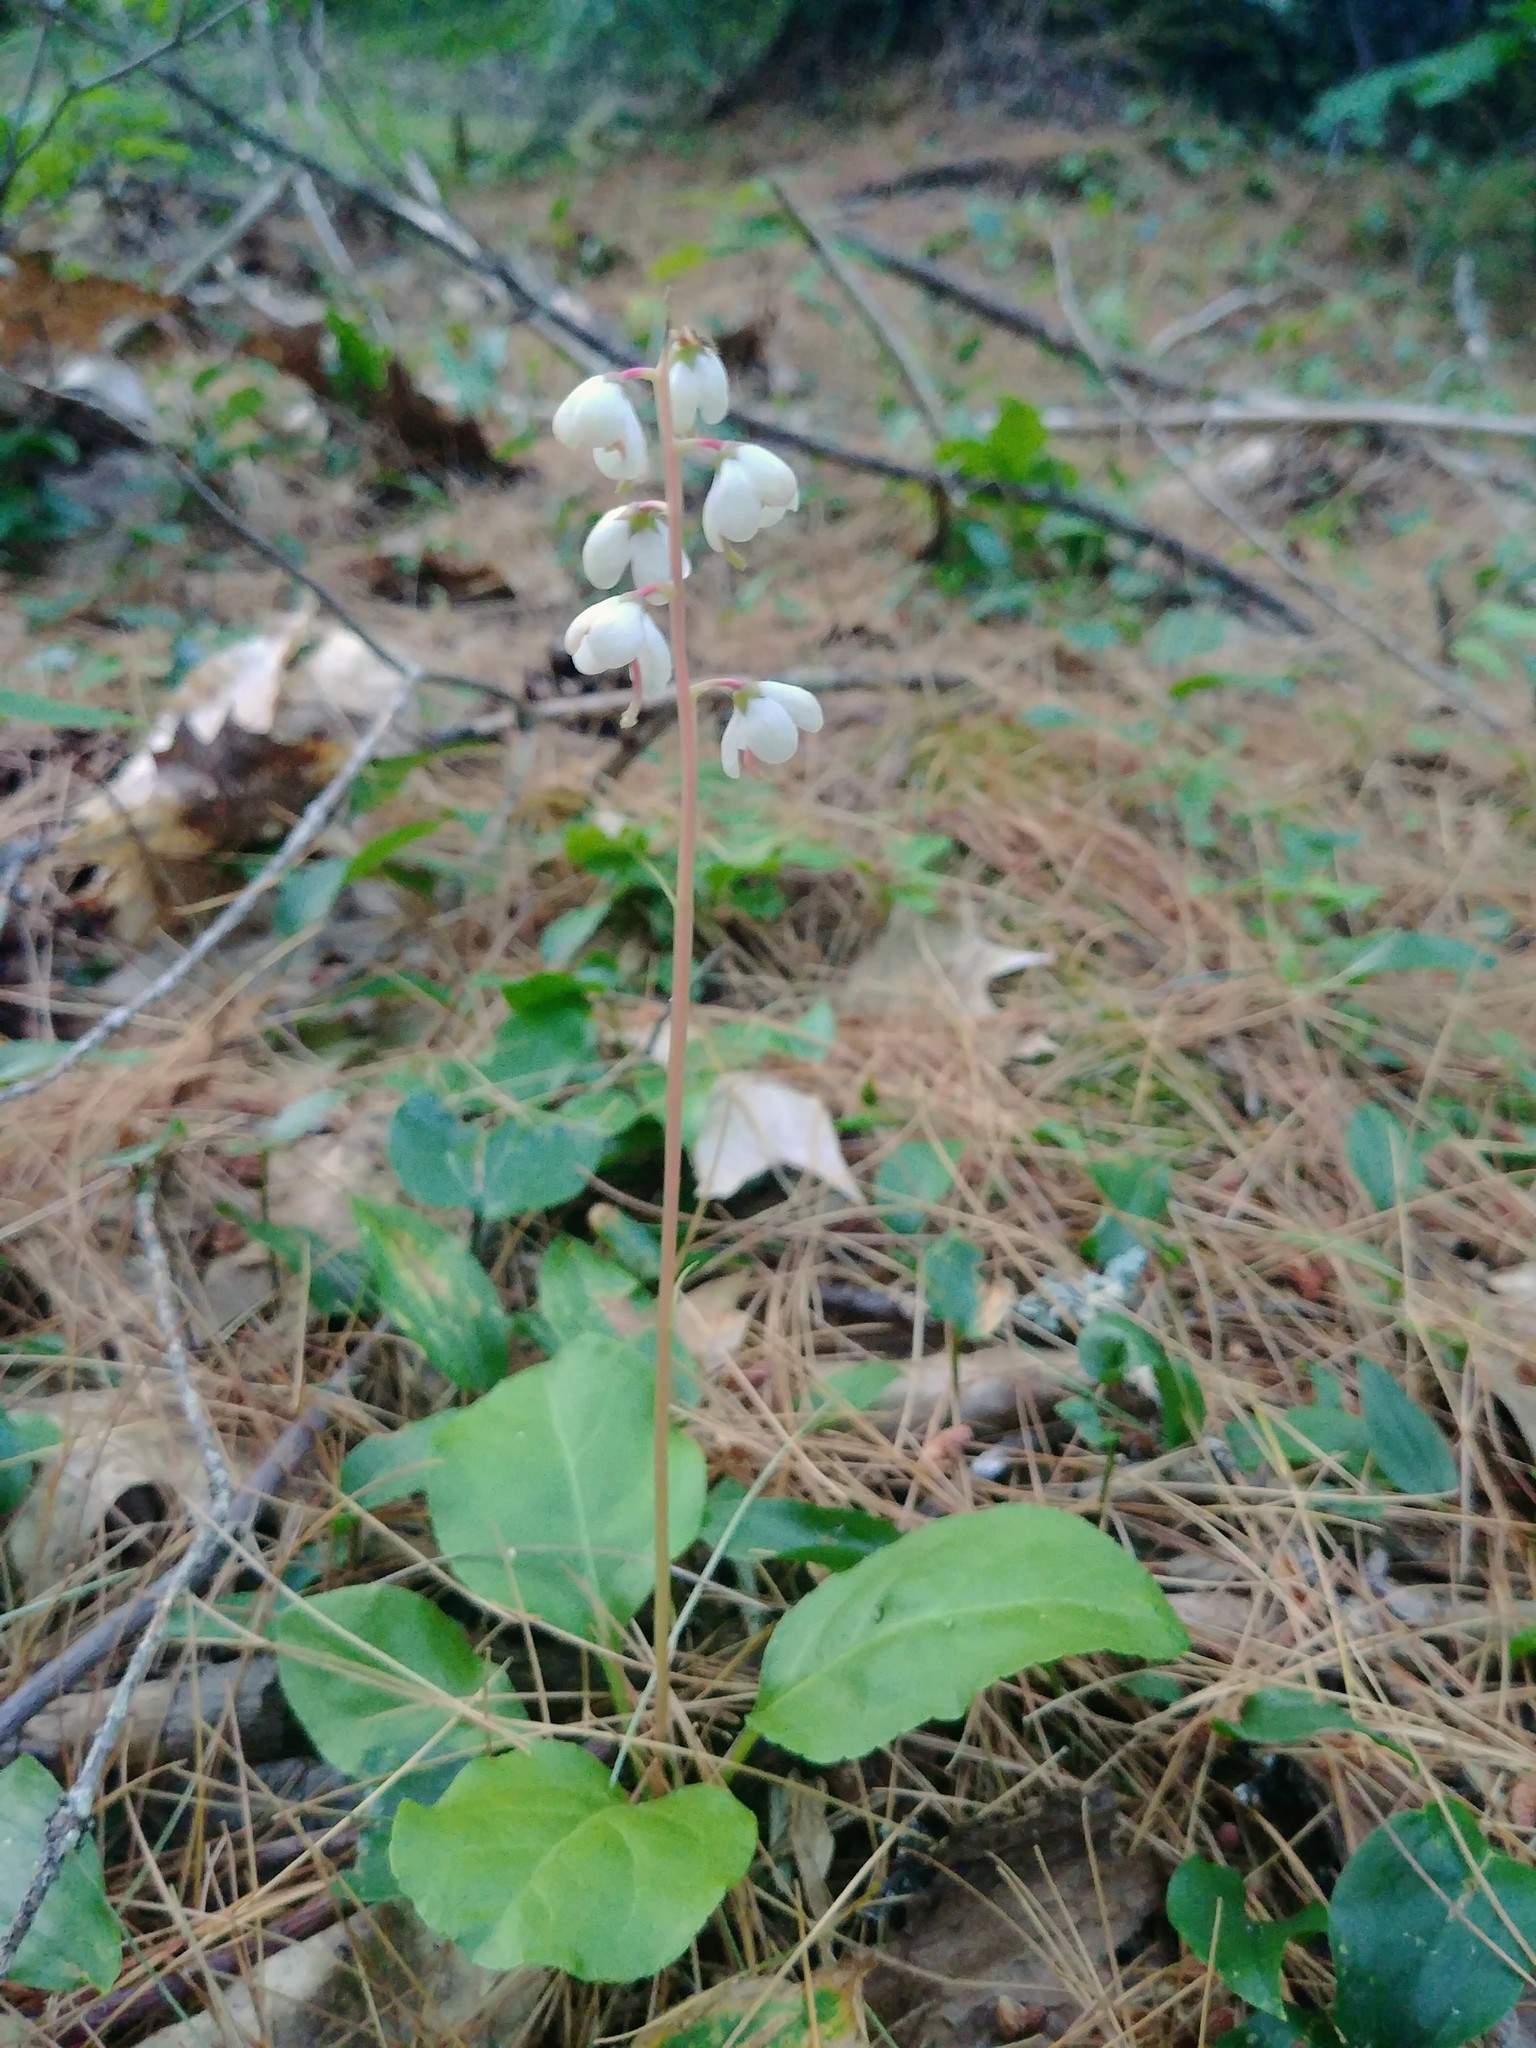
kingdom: Plantae
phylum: Tracheophyta
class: Magnoliopsida
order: Ericales
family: Ericaceae
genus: Pyrola
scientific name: Pyrola elliptica
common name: Shinleaf
